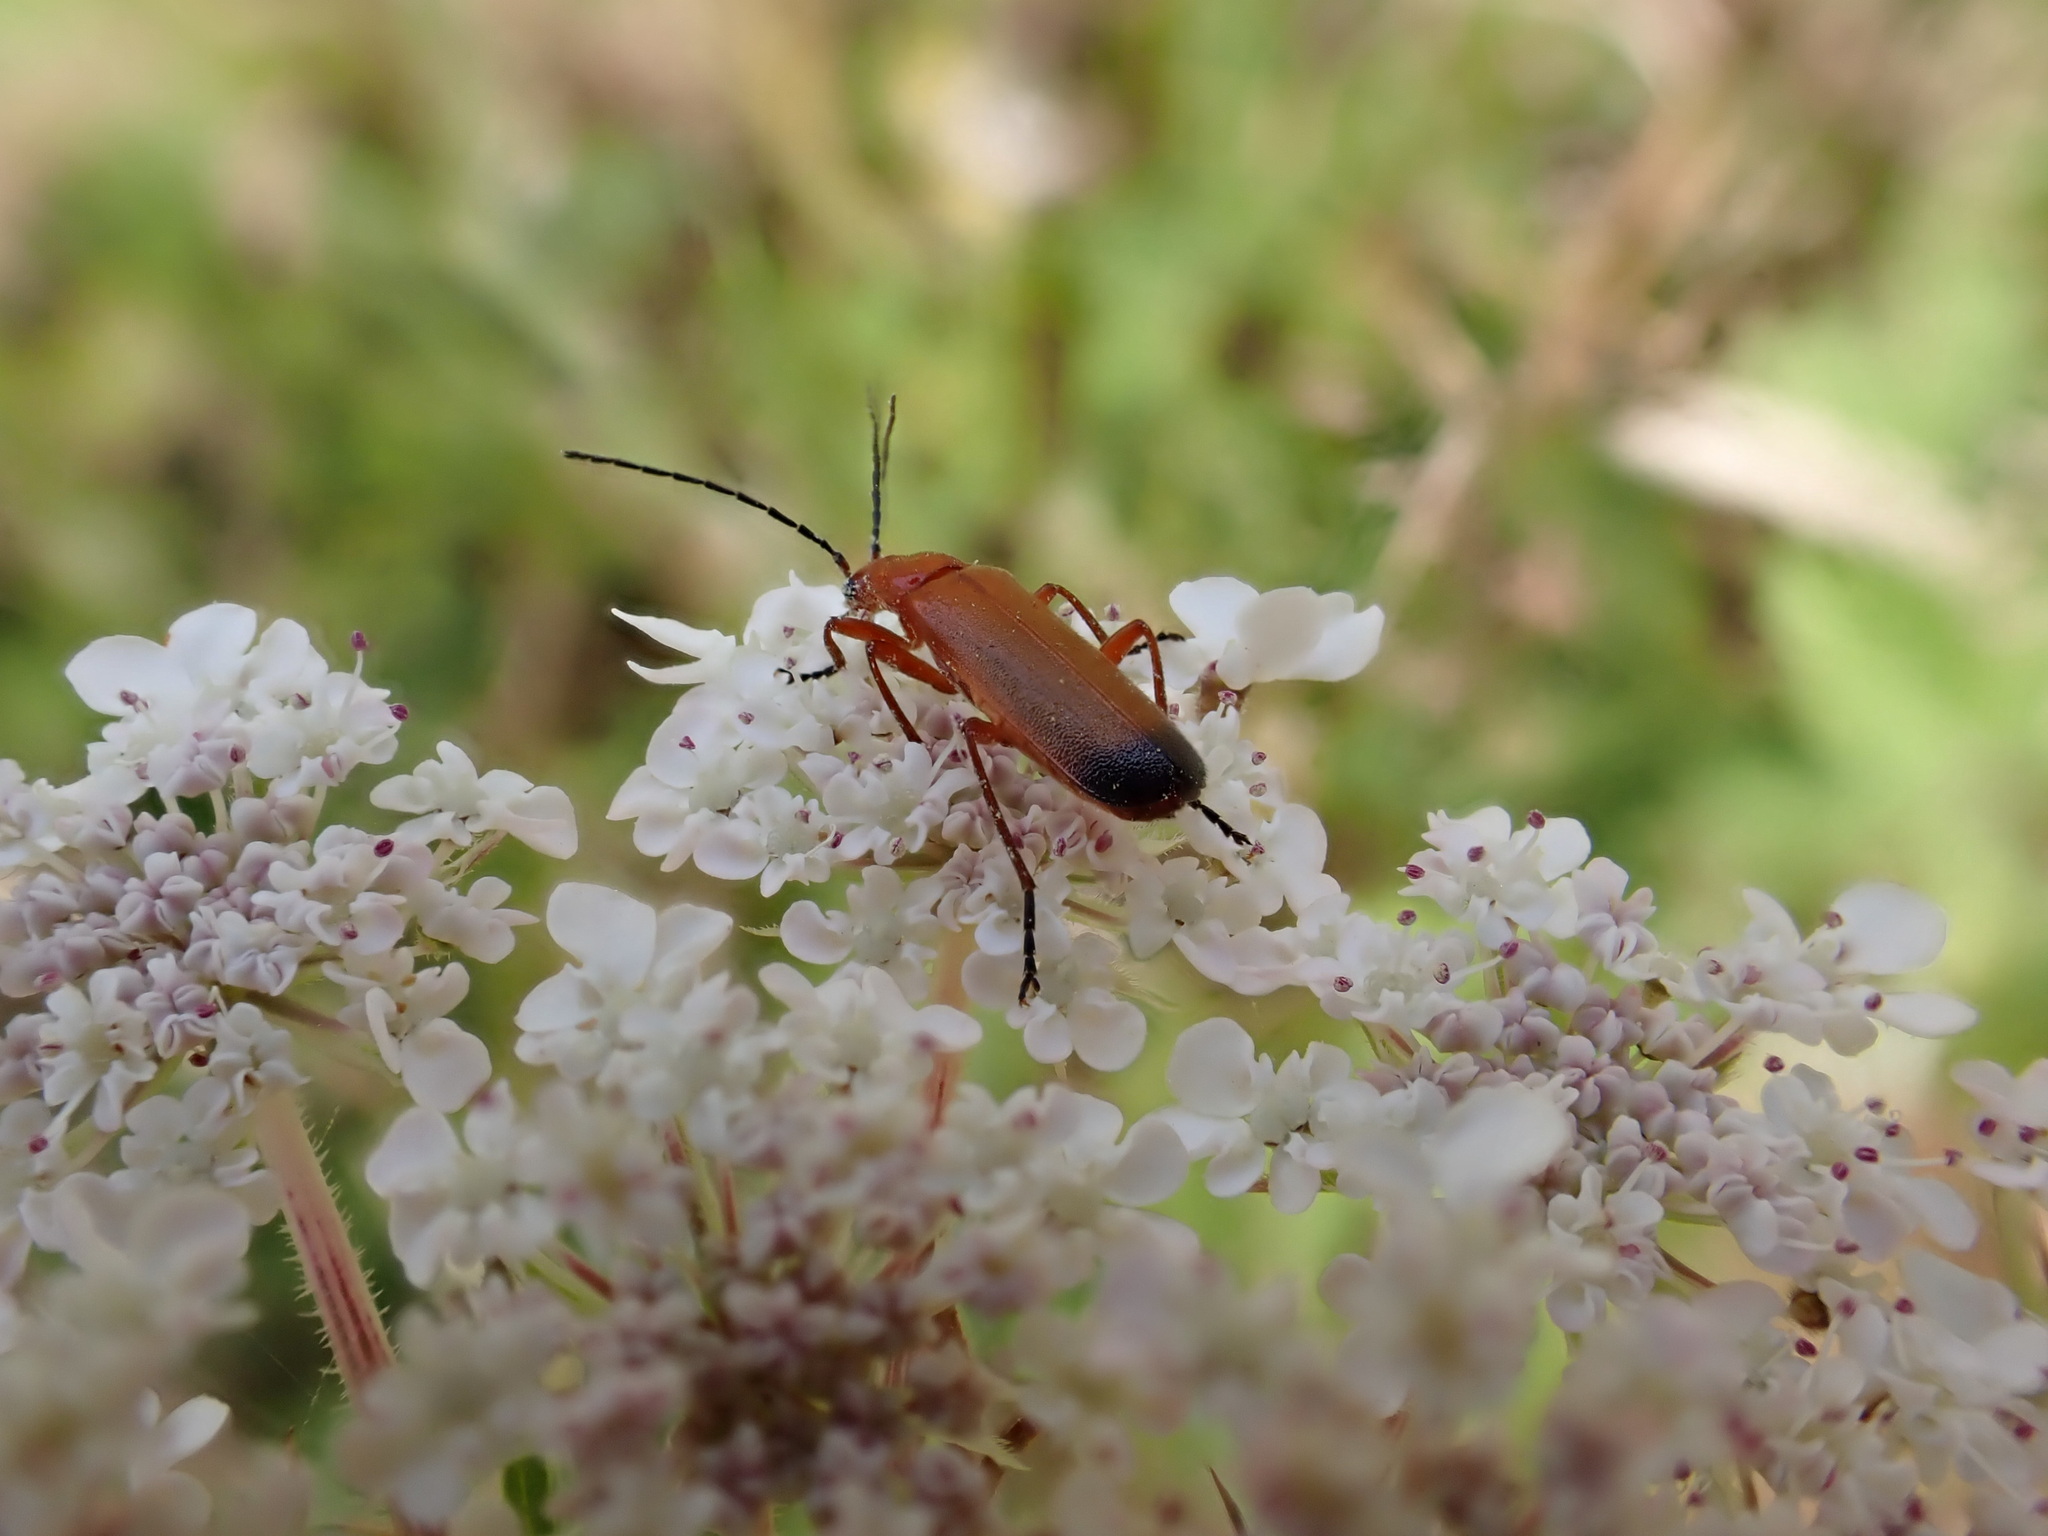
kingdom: Animalia
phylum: Arthropoda
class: Insecta
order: Coleoptera
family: Cantharidae
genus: Rhagonycha
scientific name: Rhagonycha fulva
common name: Common red soldier beetle
